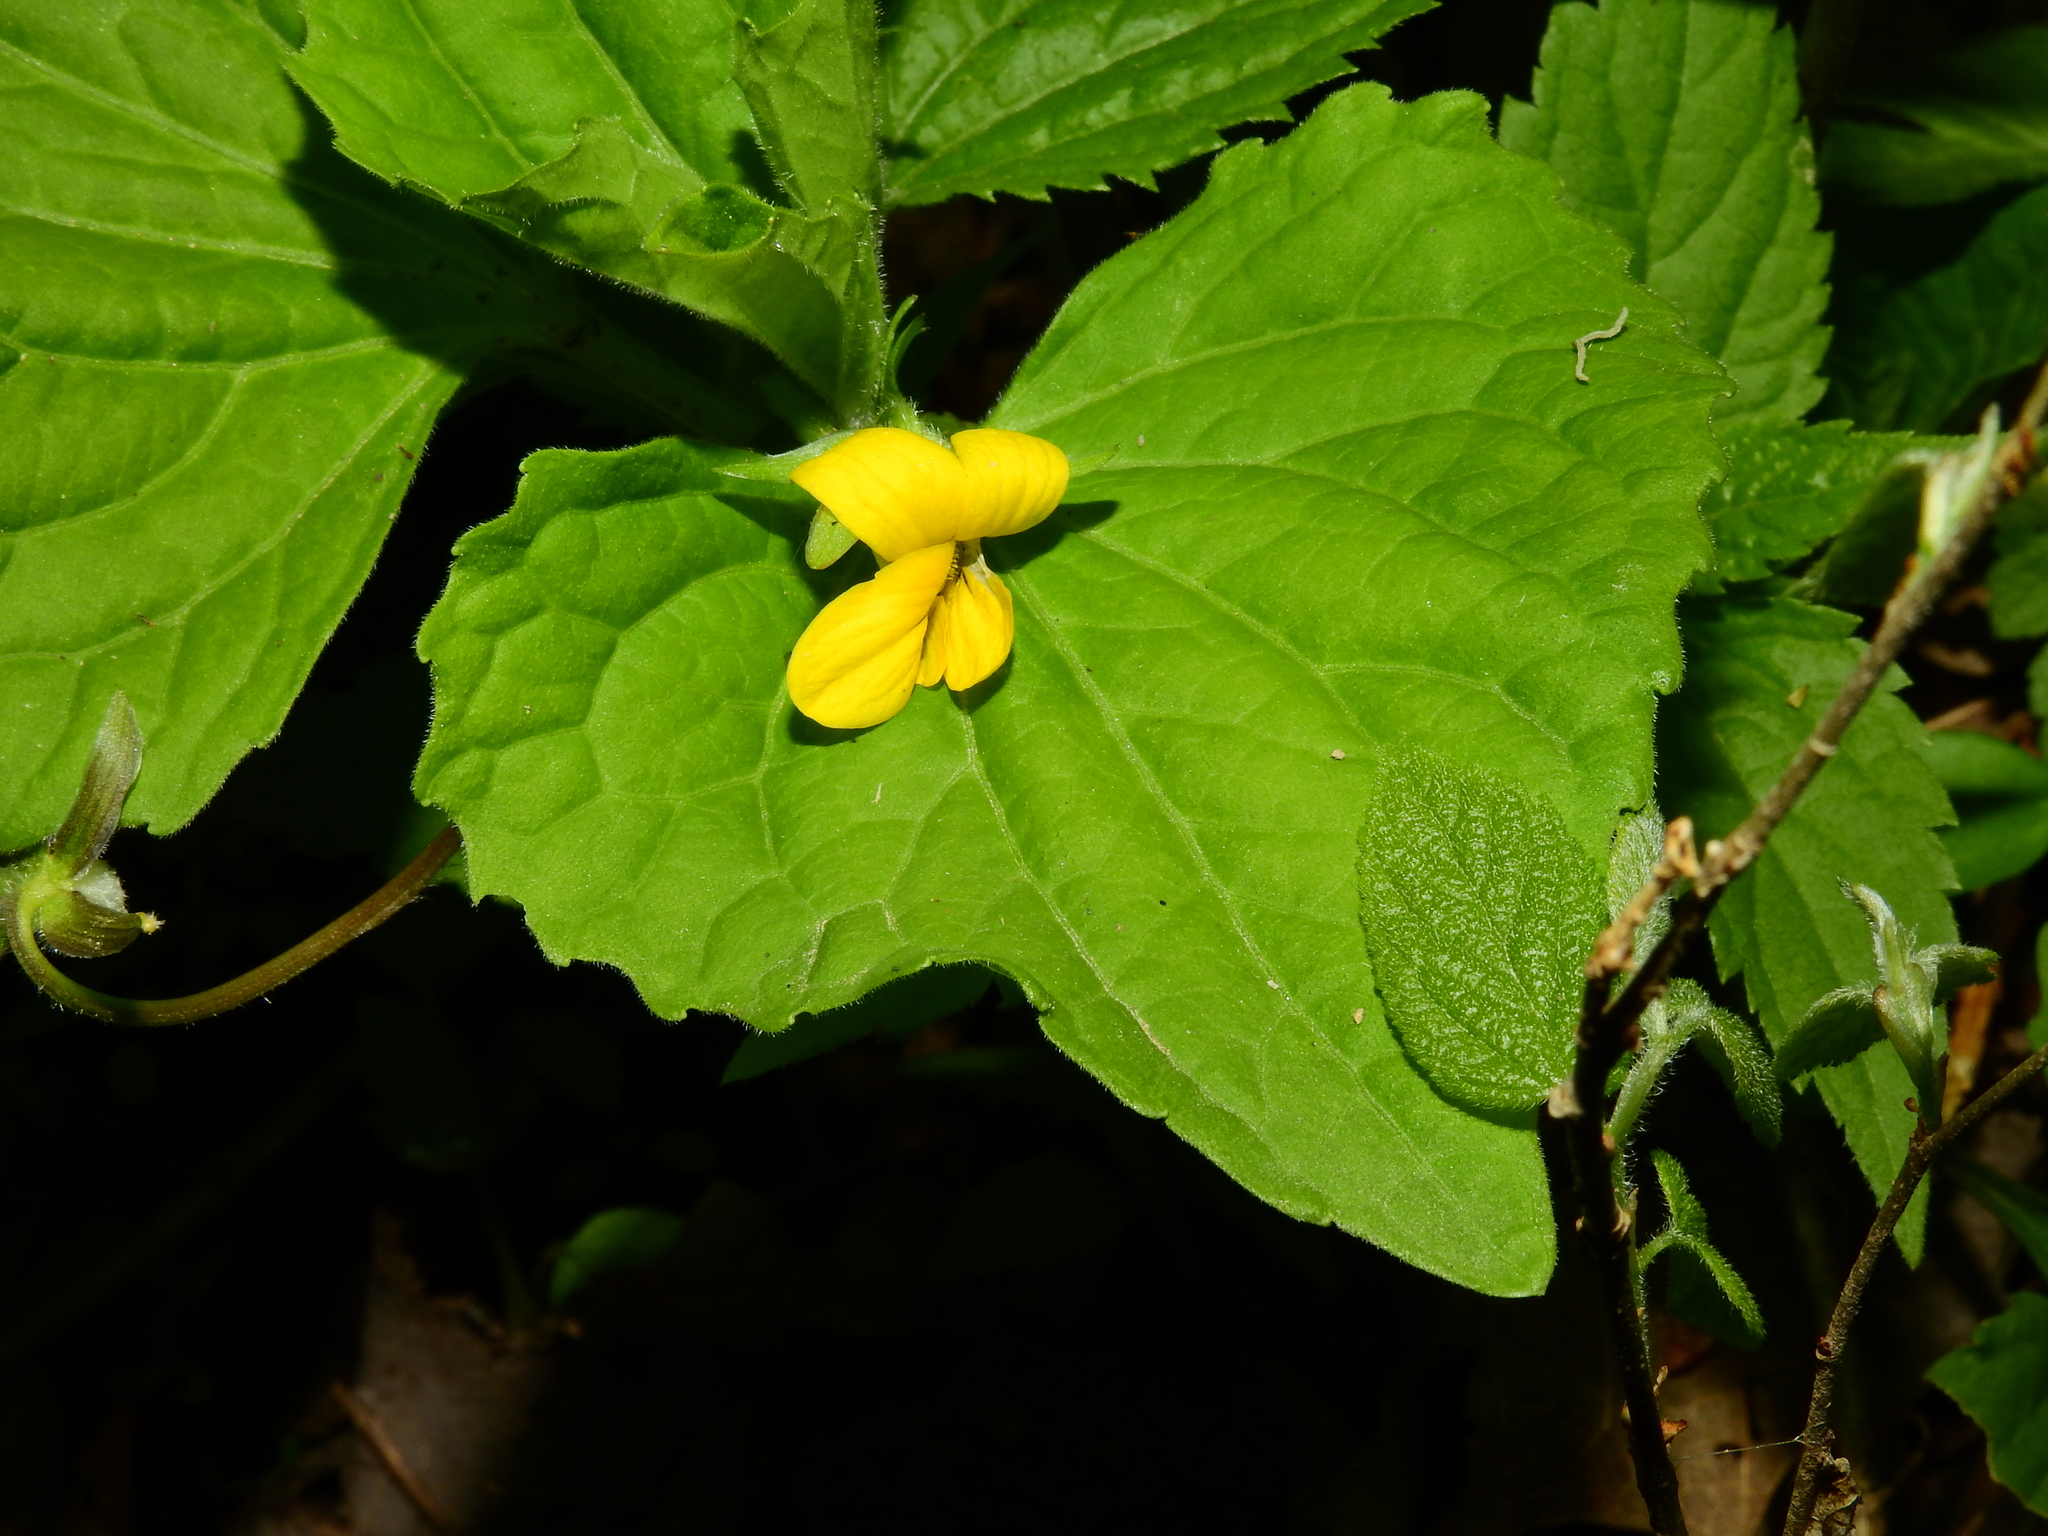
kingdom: Plantae
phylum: Tracheophyta
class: Magnoliopsida
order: Malpighiales
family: Violaceae
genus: Viola
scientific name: Viola eriocarpa
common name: Smooth yellow violet
